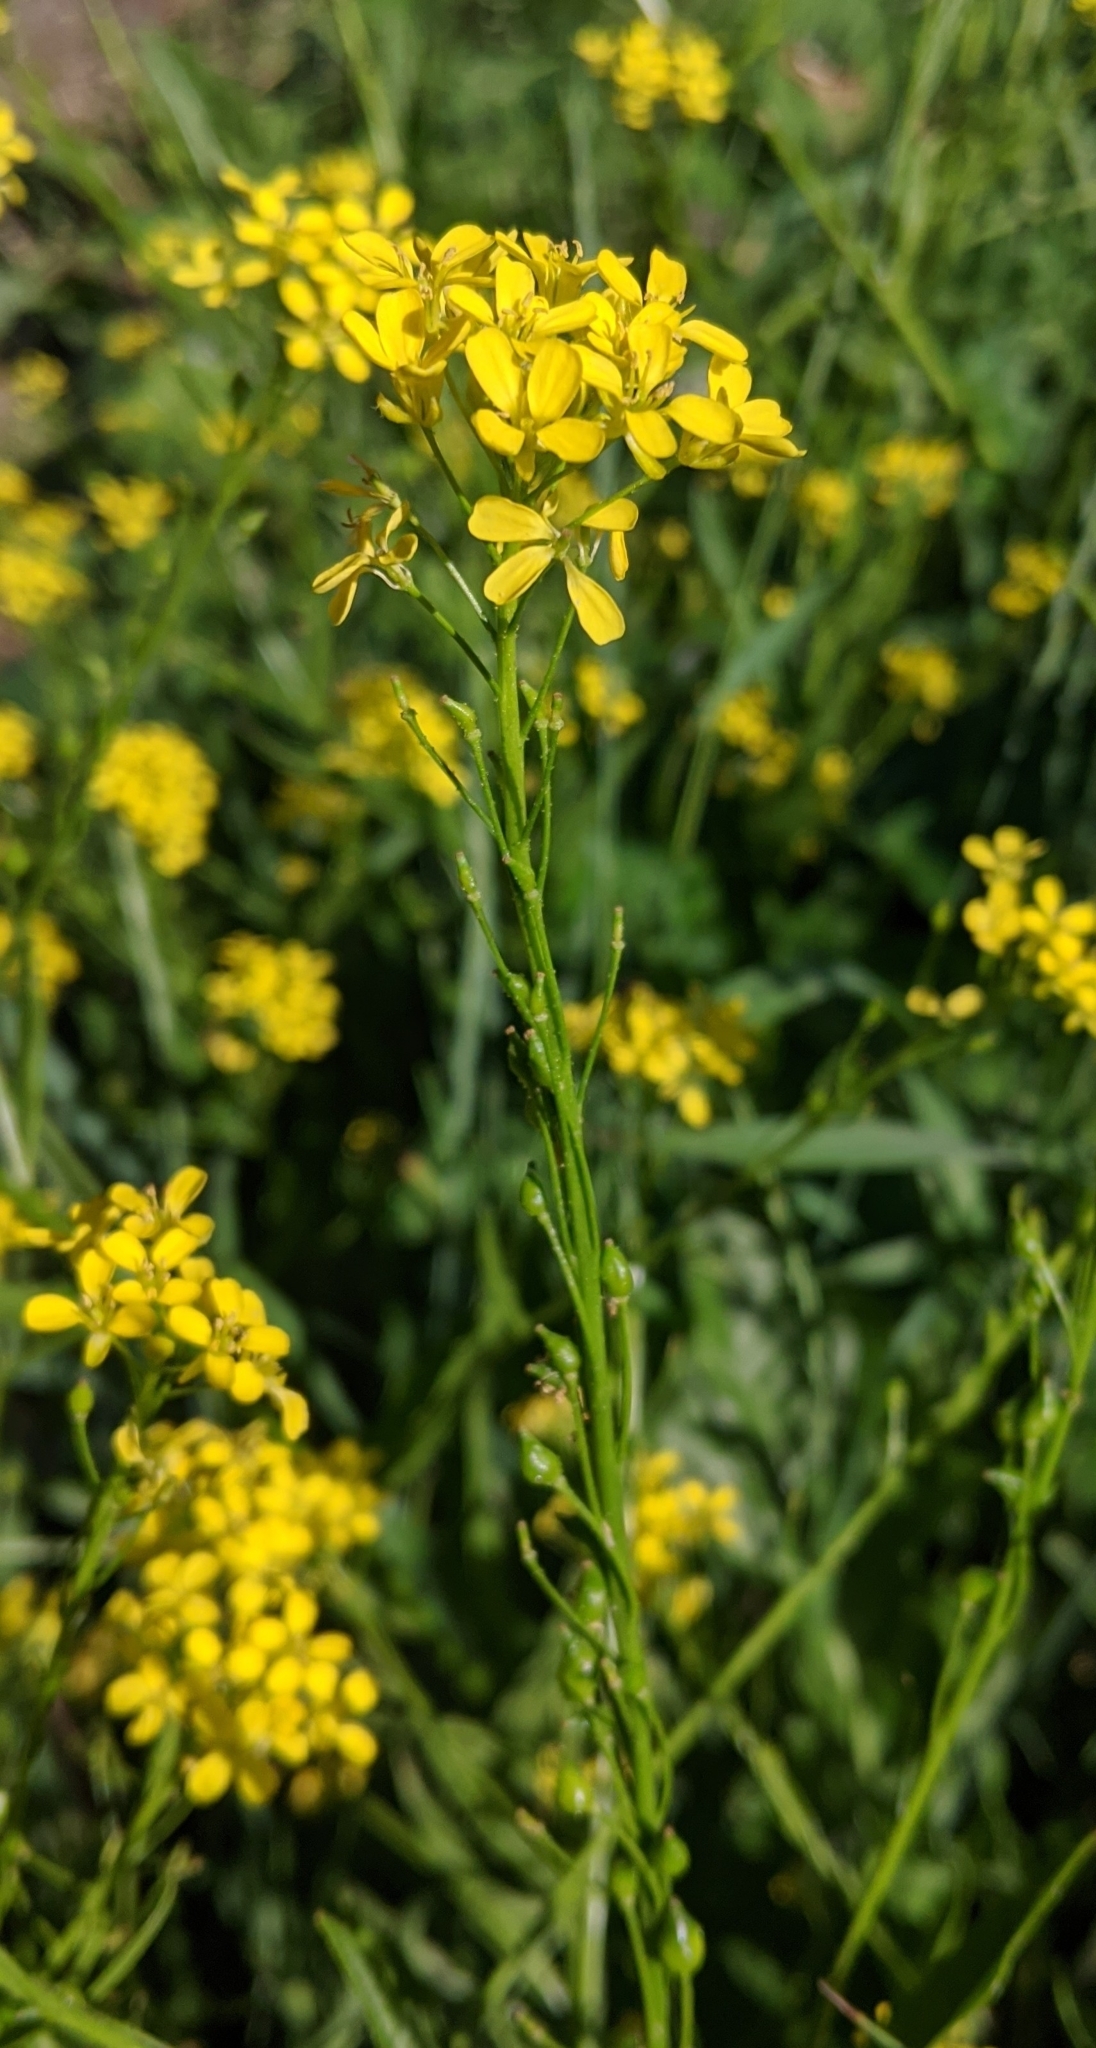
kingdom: Plantae
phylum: Tracheophyta
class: Magnoliopsida
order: Brassicales
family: Brassicaceae
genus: Bunias
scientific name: Bunias orientalis
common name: Warty-cabbage
